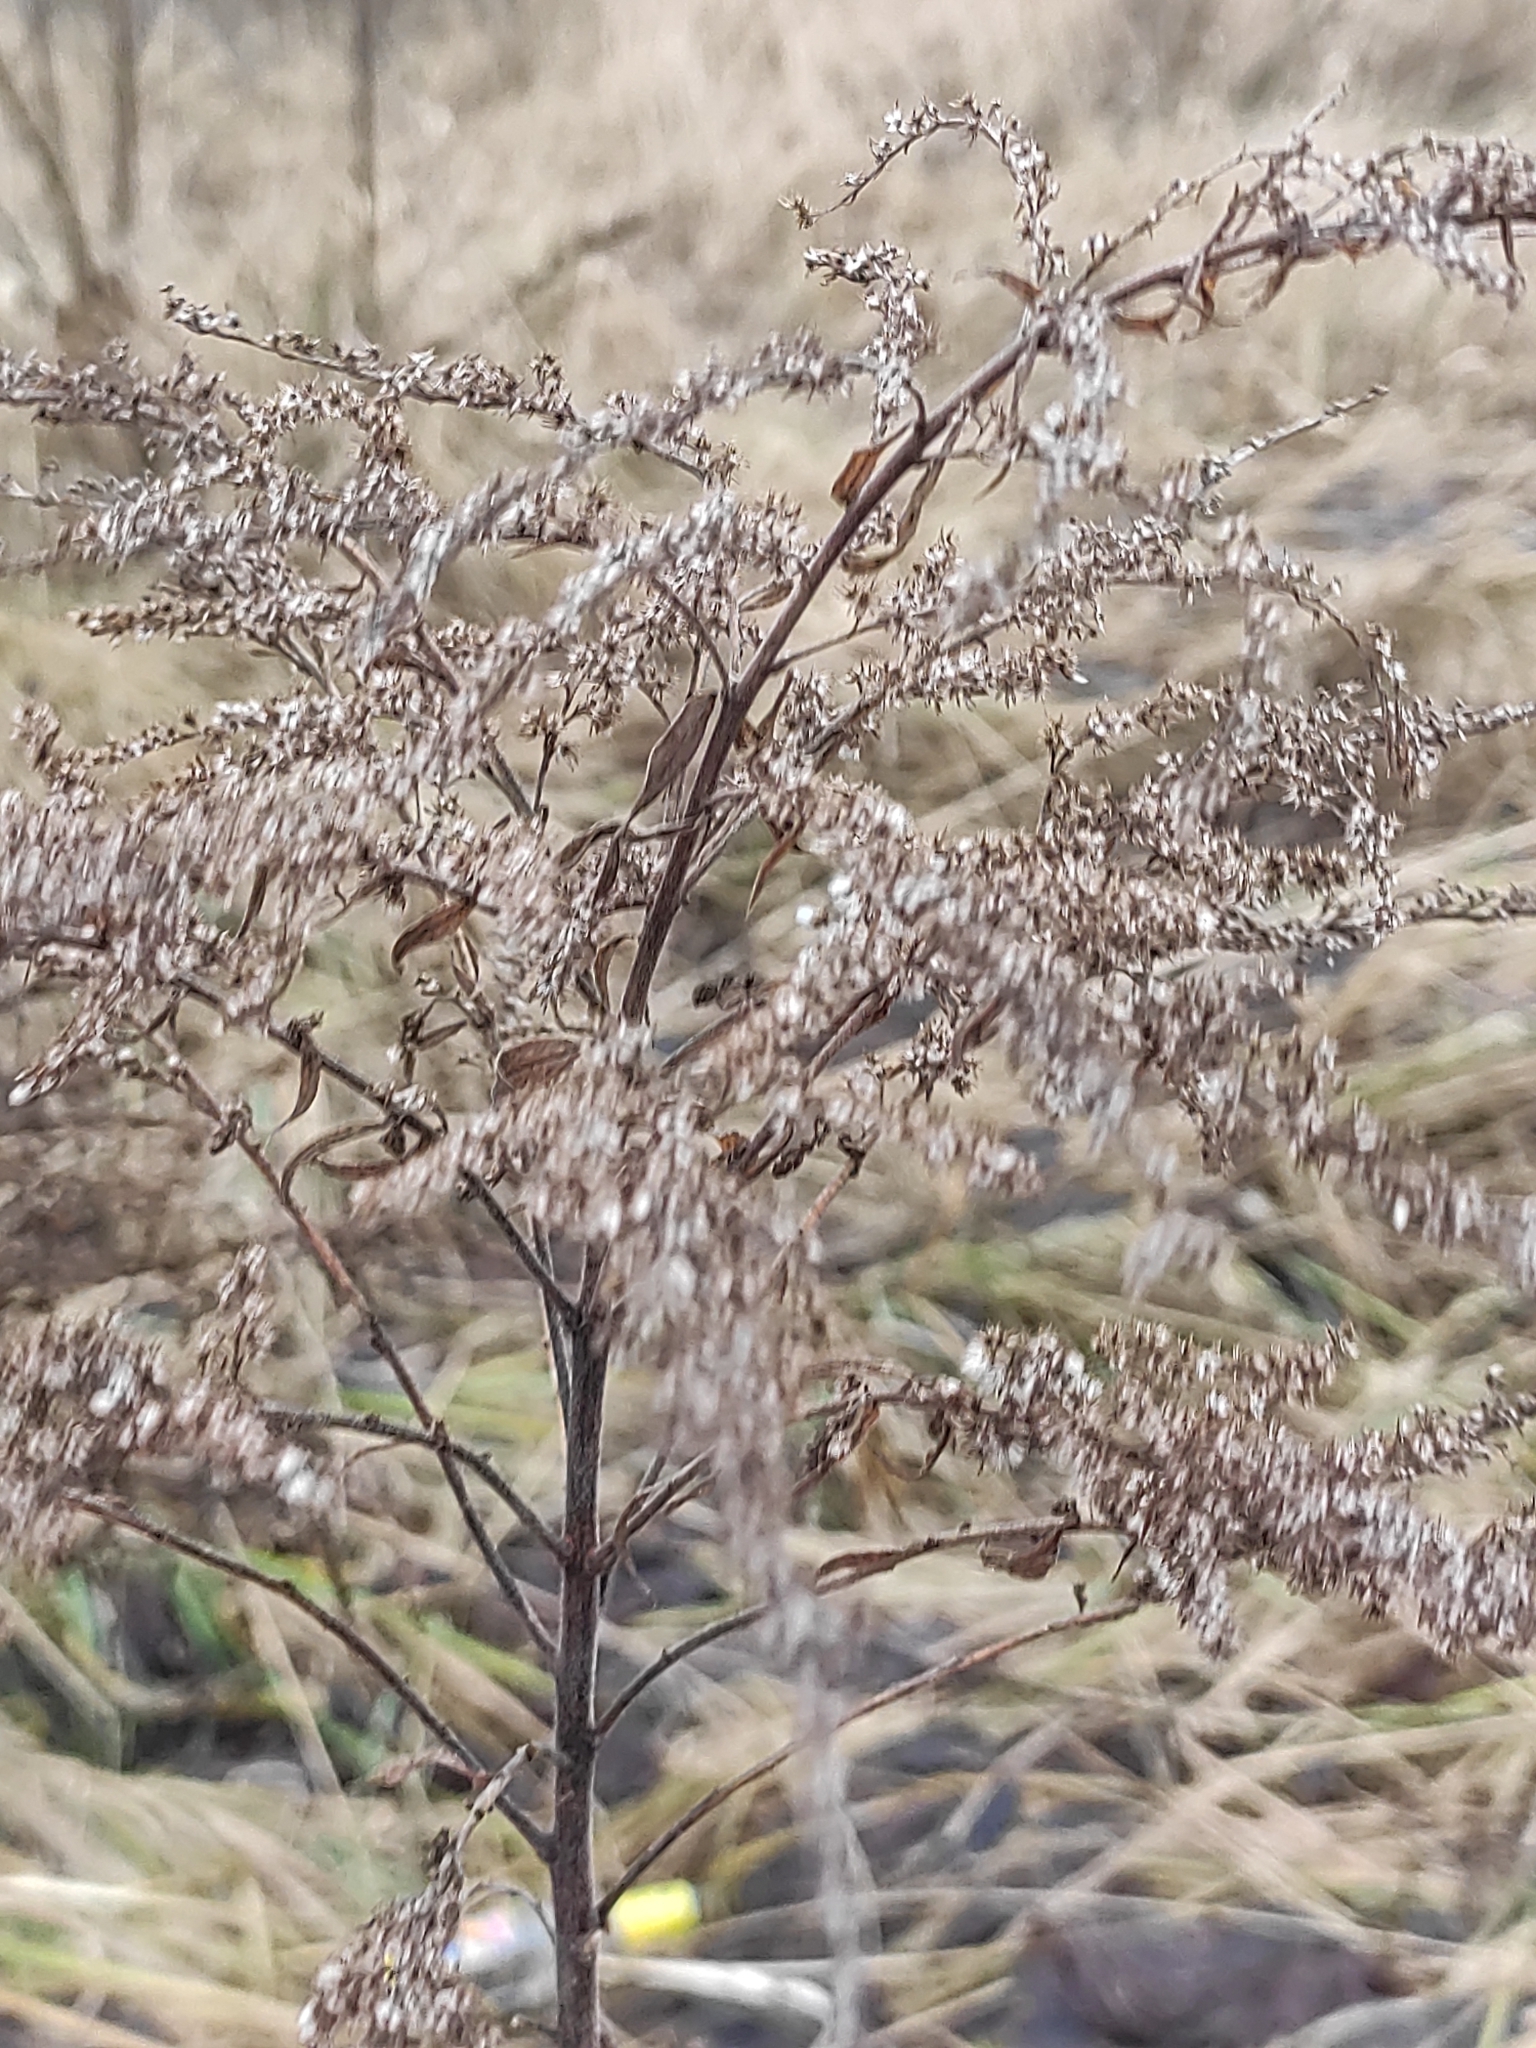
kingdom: Plantae
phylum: Tracheophyta
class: Magnoliopsida
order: Asterales
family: Asteraceae
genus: Solidago
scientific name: Solidago canadensis
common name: Canada goldenrod
